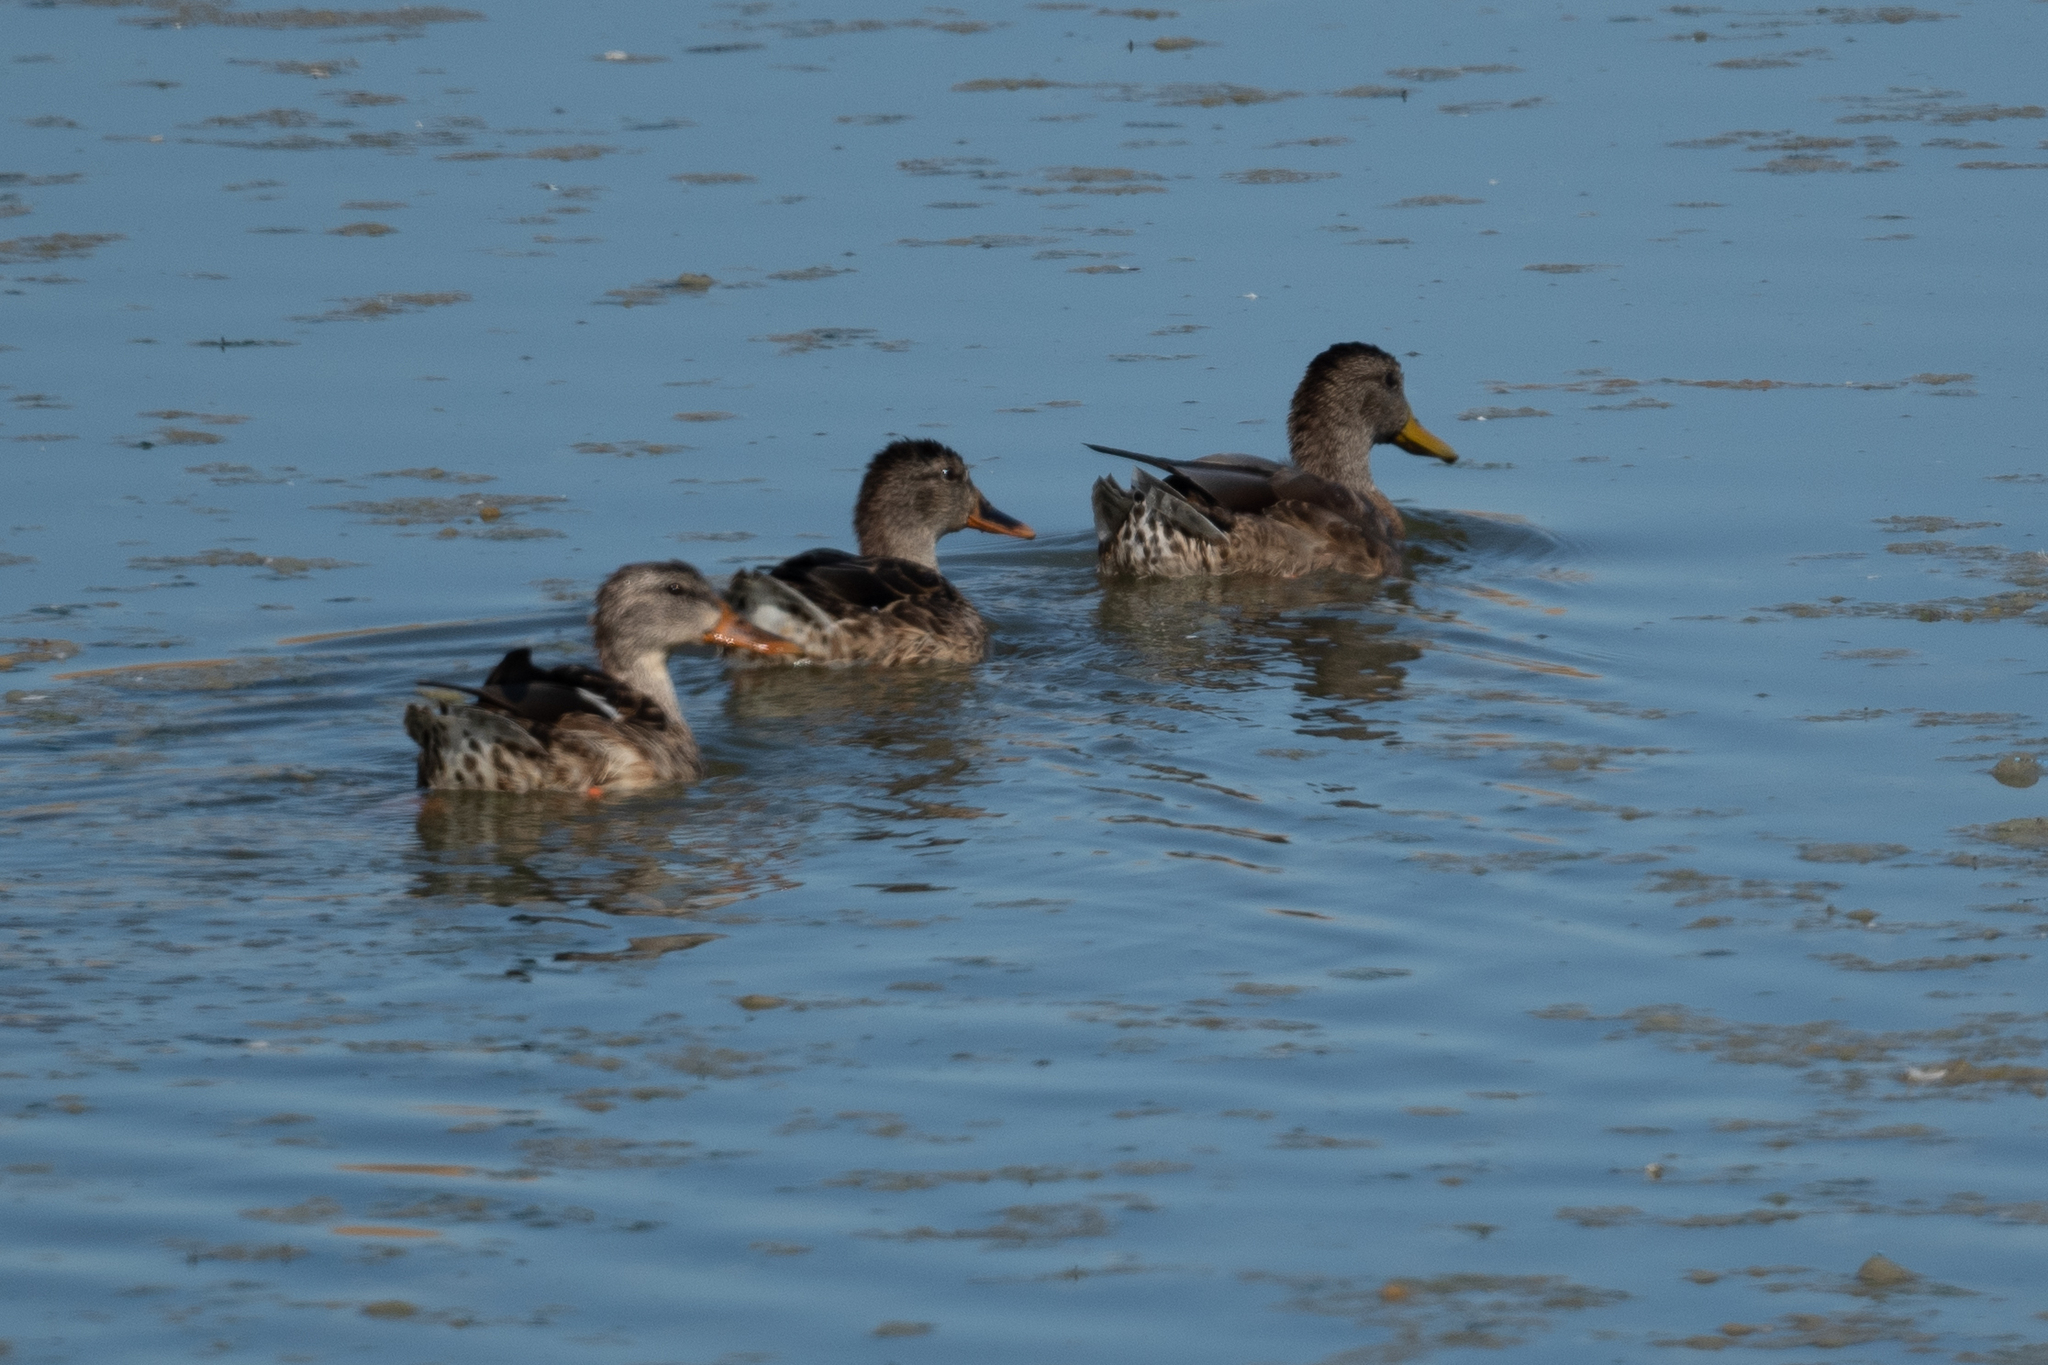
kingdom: Animalia
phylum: Chordata
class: Aves
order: Anseriformes
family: Anatidae
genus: Anas
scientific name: Anas platyrhynchos
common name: Mallard
